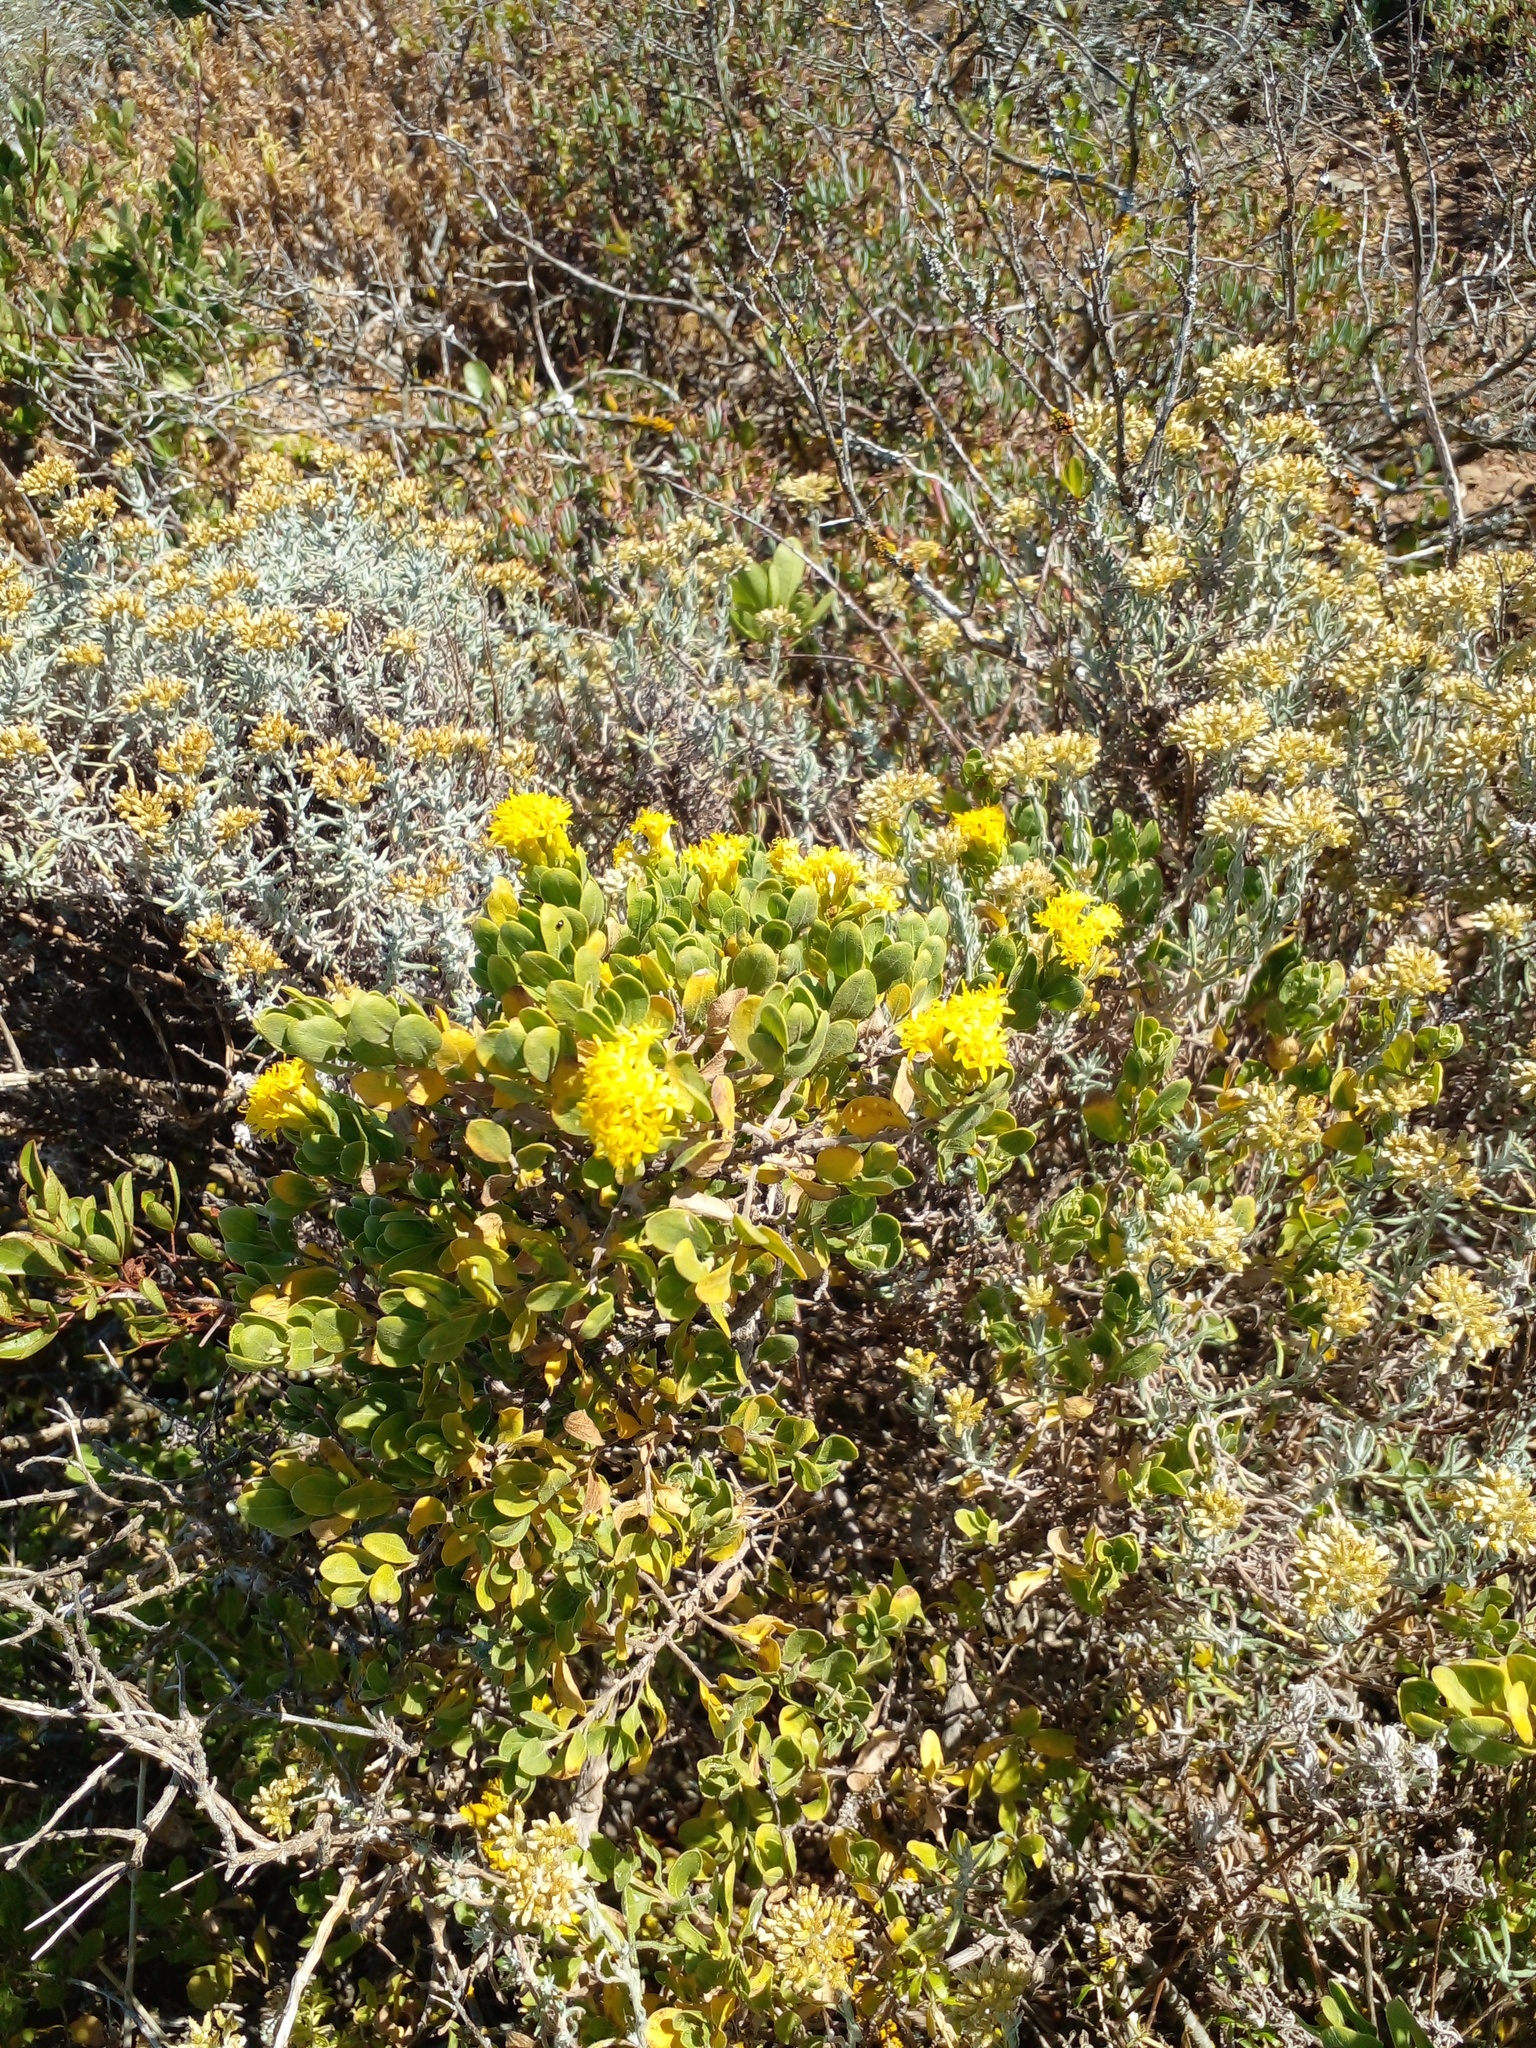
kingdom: Plantae
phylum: Tracheophyta
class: Magnoliopsida
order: Asterales
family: Asteraceae
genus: Pteronia
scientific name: Pteronia divaricata
